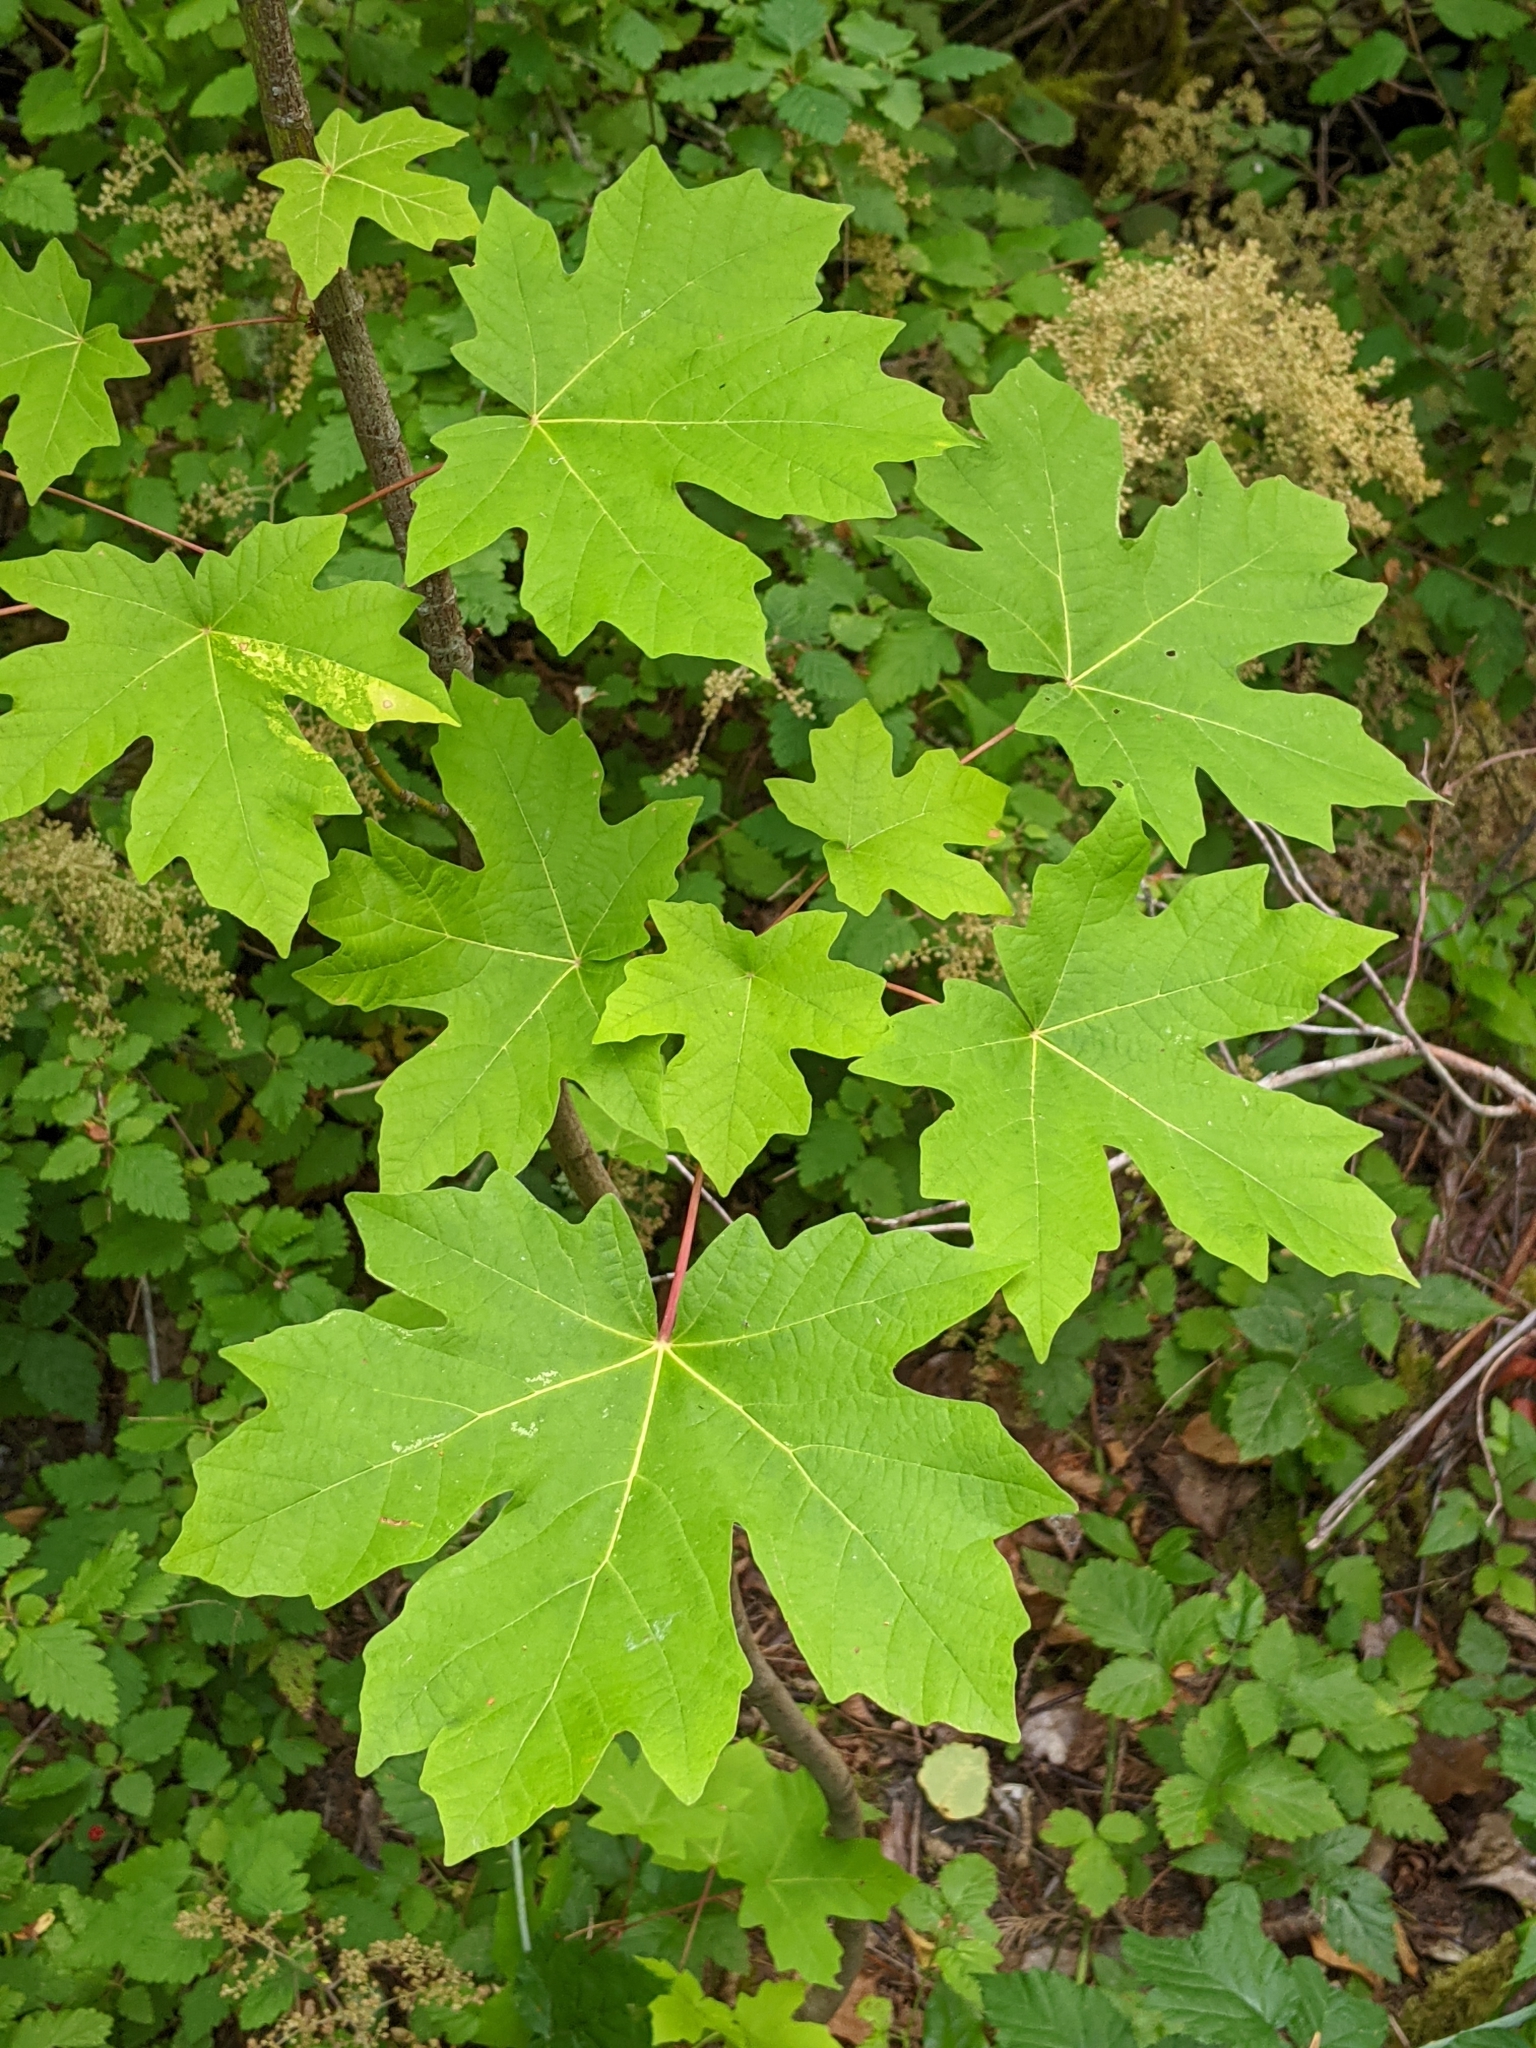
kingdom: Plantae
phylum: Tracheophyta
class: Magnoliopsida
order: Sapindales
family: Sapindaceae
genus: Acer
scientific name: Acer macrophyllum
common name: Oregon maple
